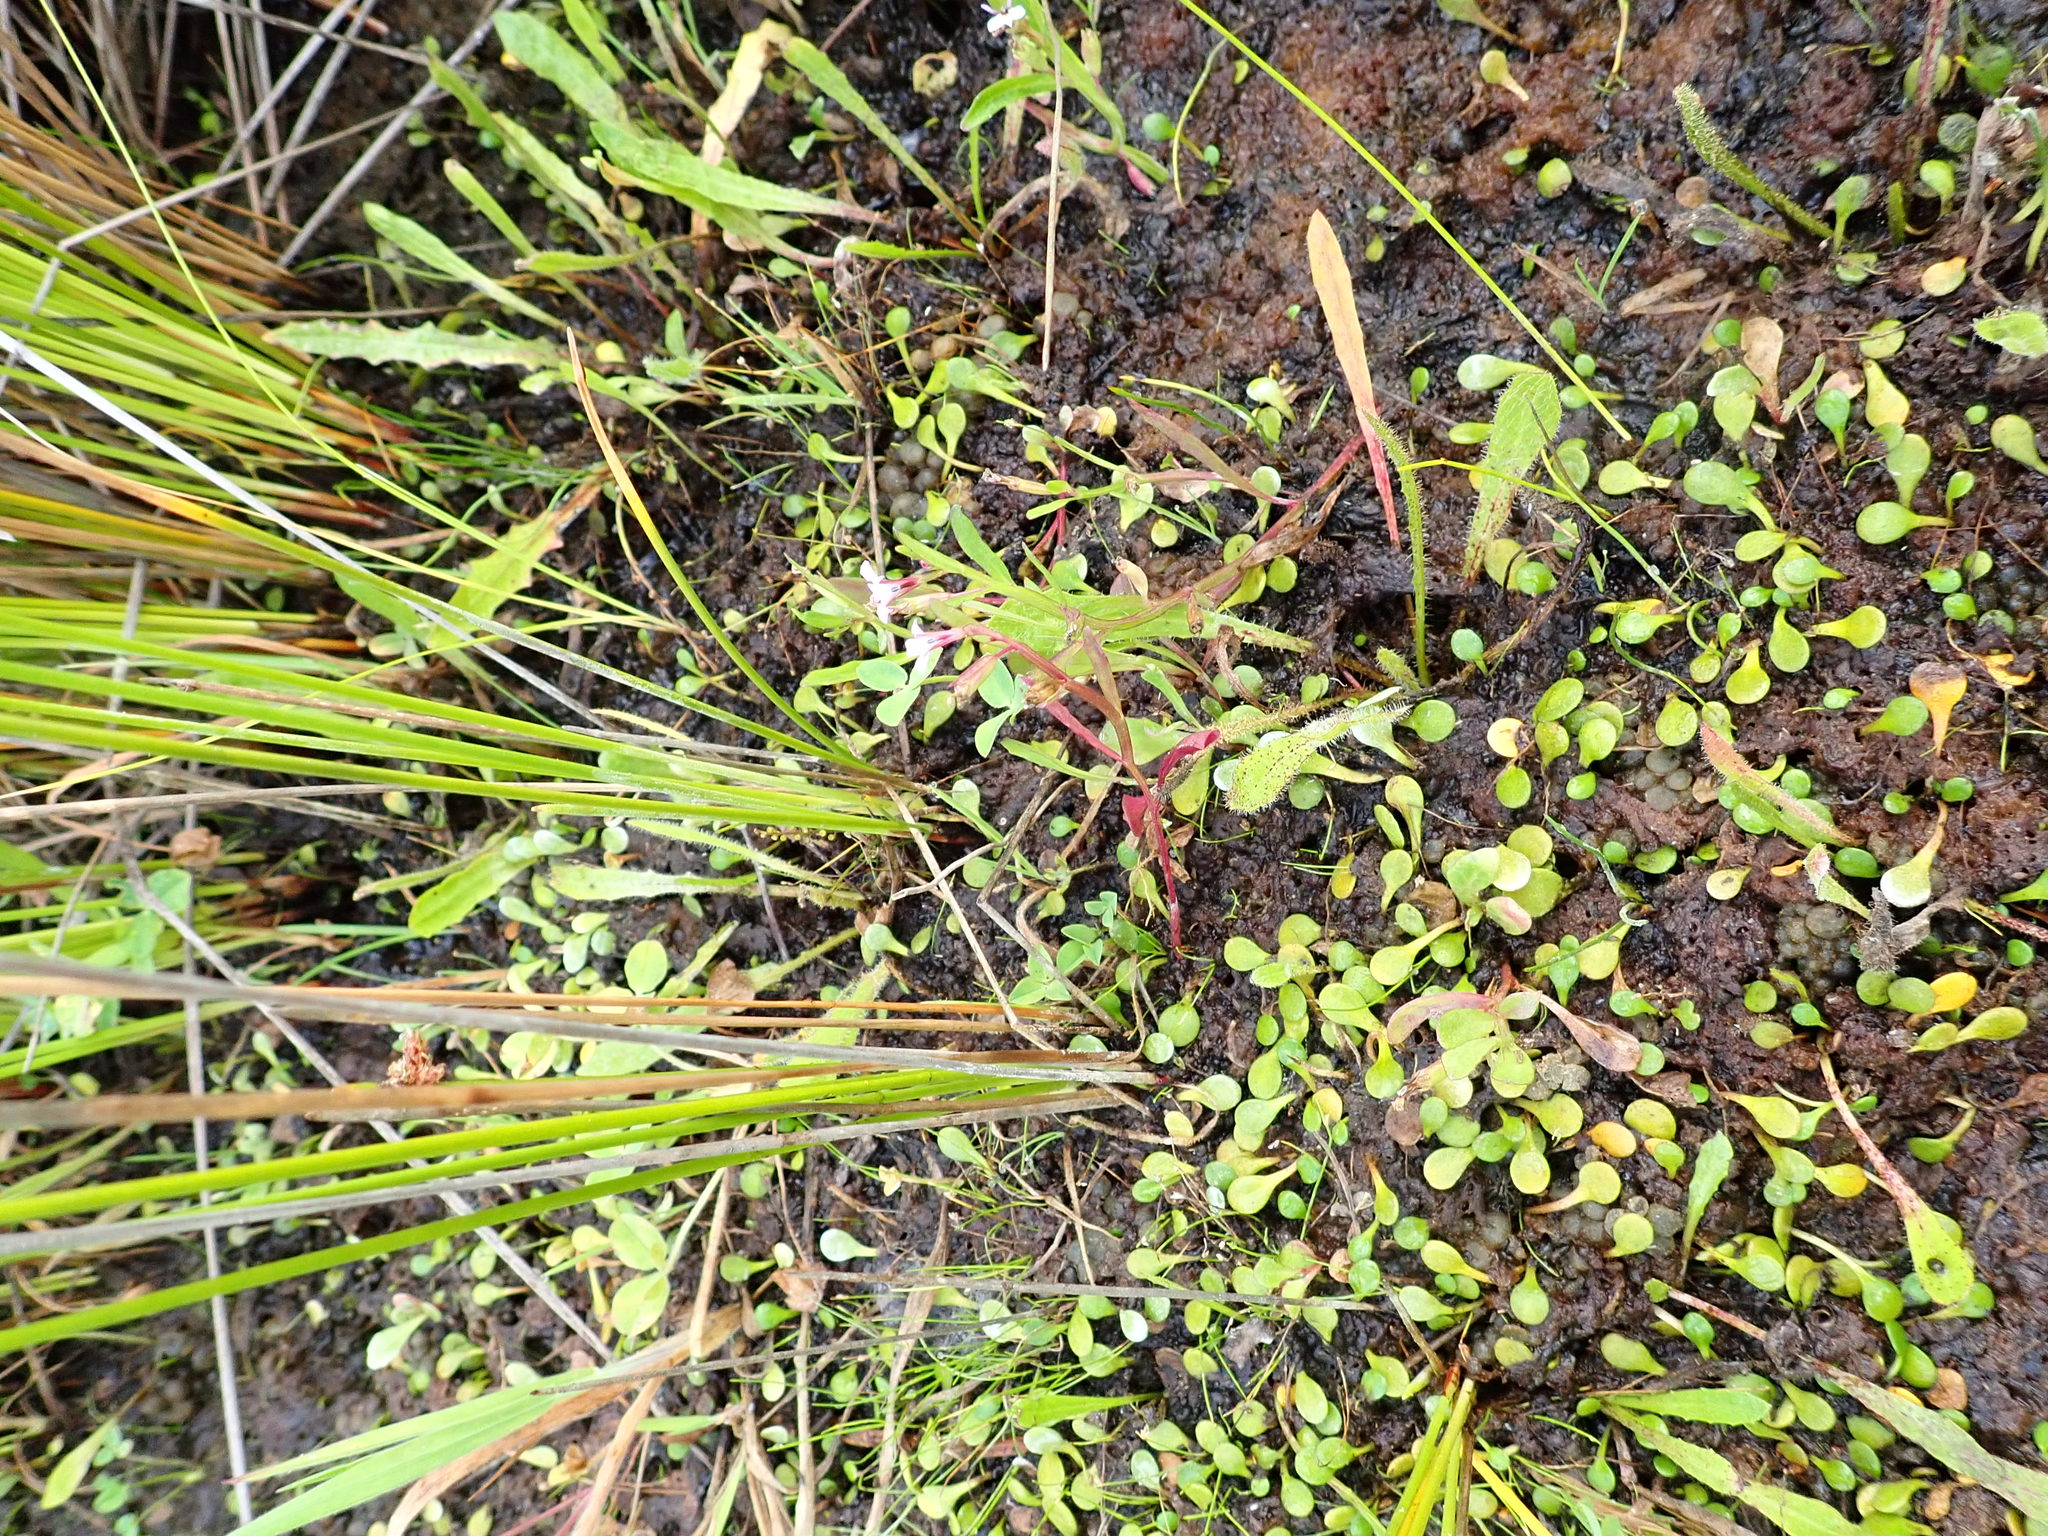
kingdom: Plantae
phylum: Tracheophyta
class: Magnoliopsida
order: Asterales
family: Campanulaceae
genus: Lobelia
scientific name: Lobelia anceps
